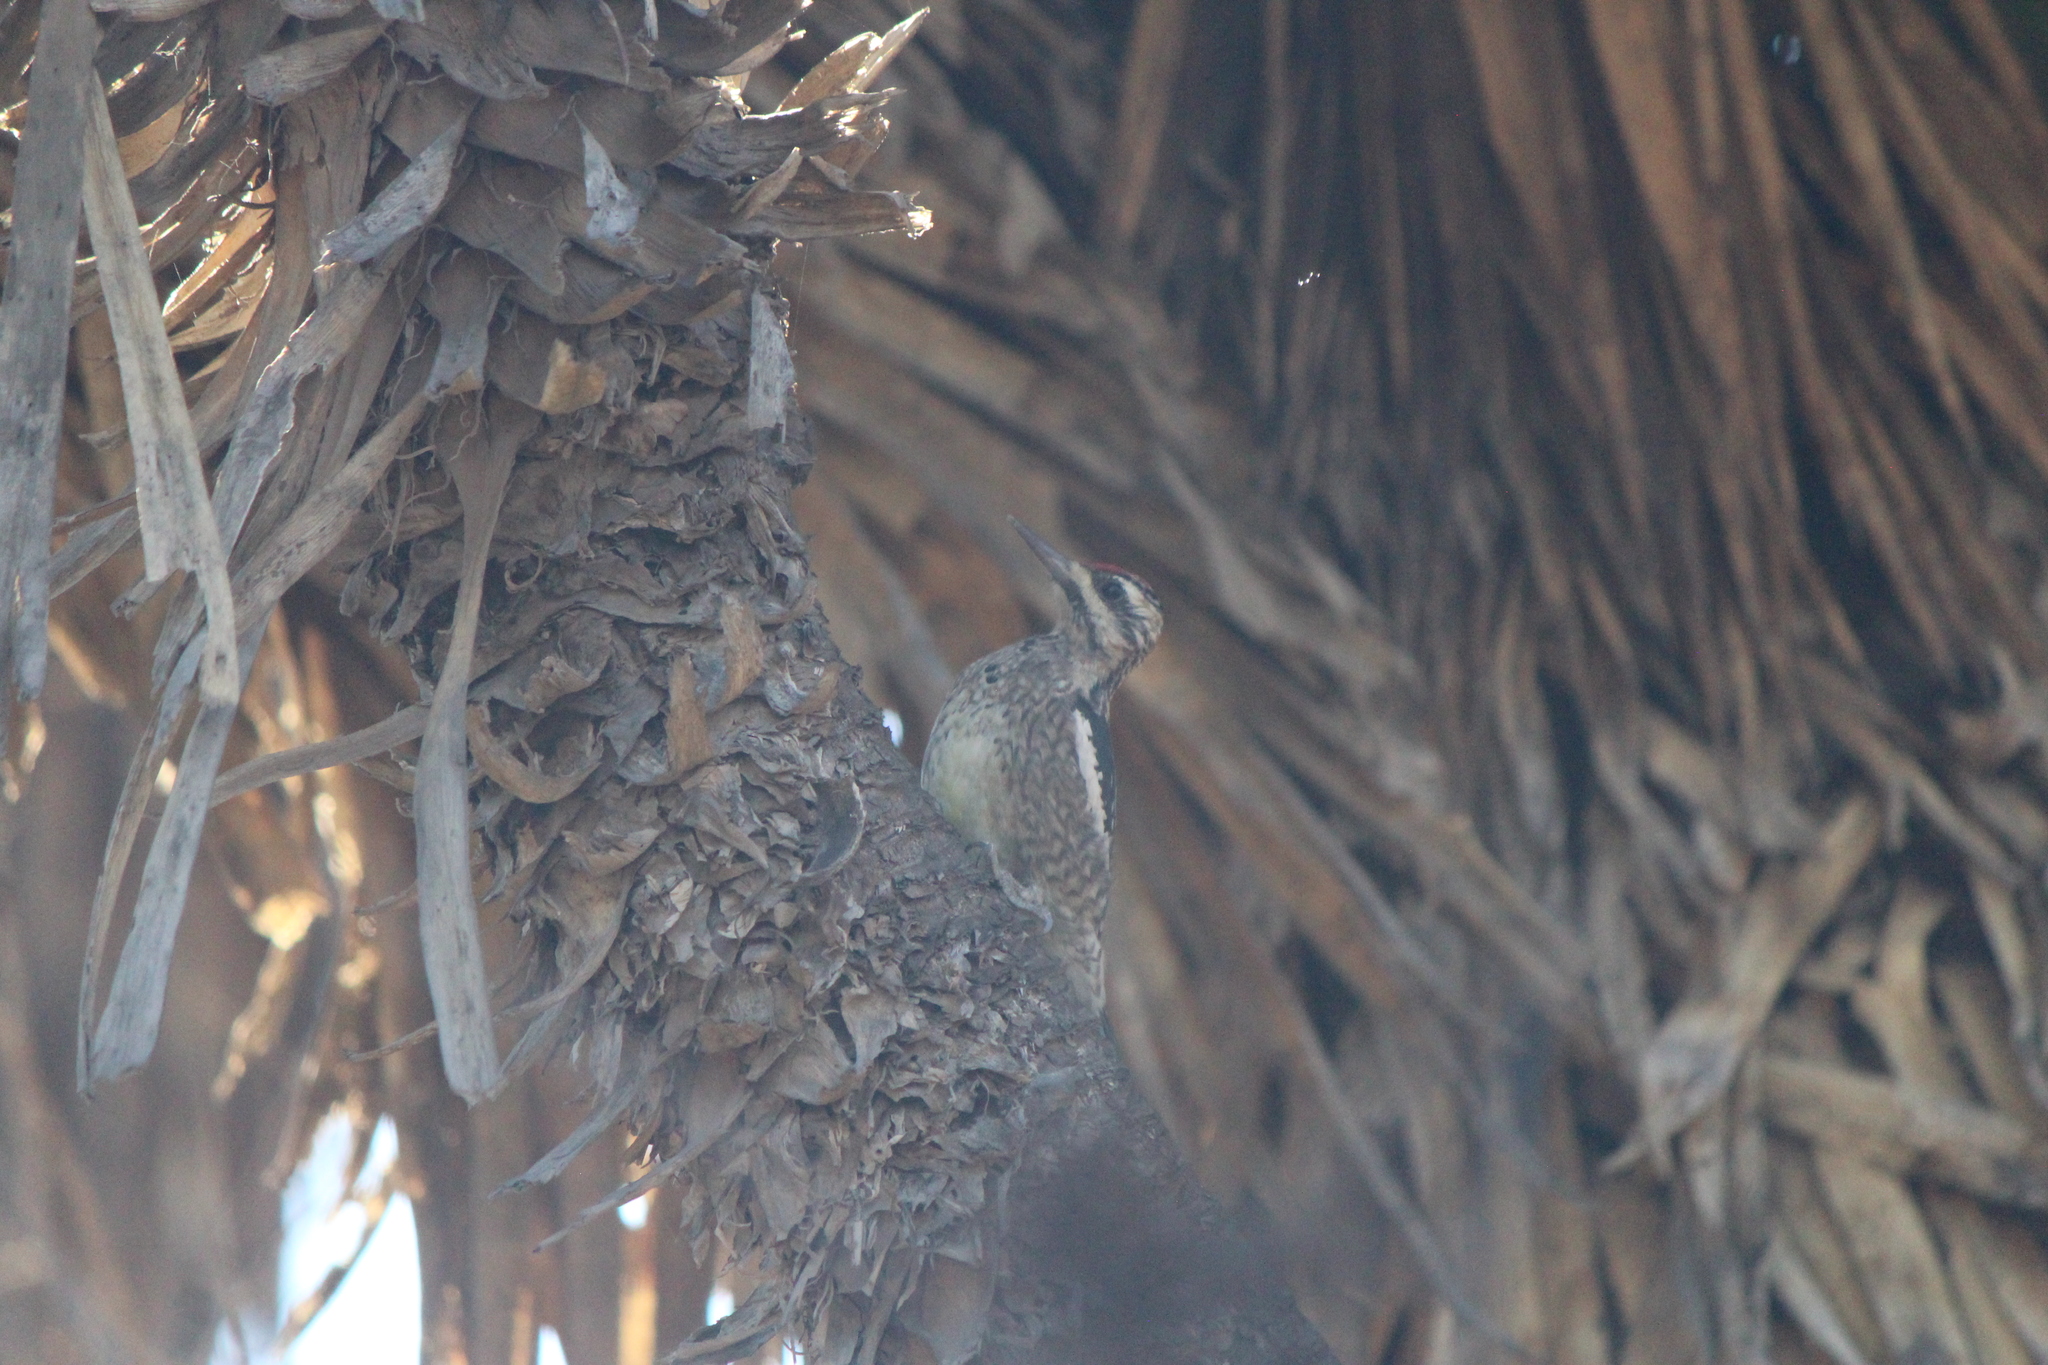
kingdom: Animalia
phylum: Chordata
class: Aves
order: Piciformes
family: Picidae
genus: Sphyrapicus
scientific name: Sphyrapicus varius
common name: Yellow-bellied sapsucker
